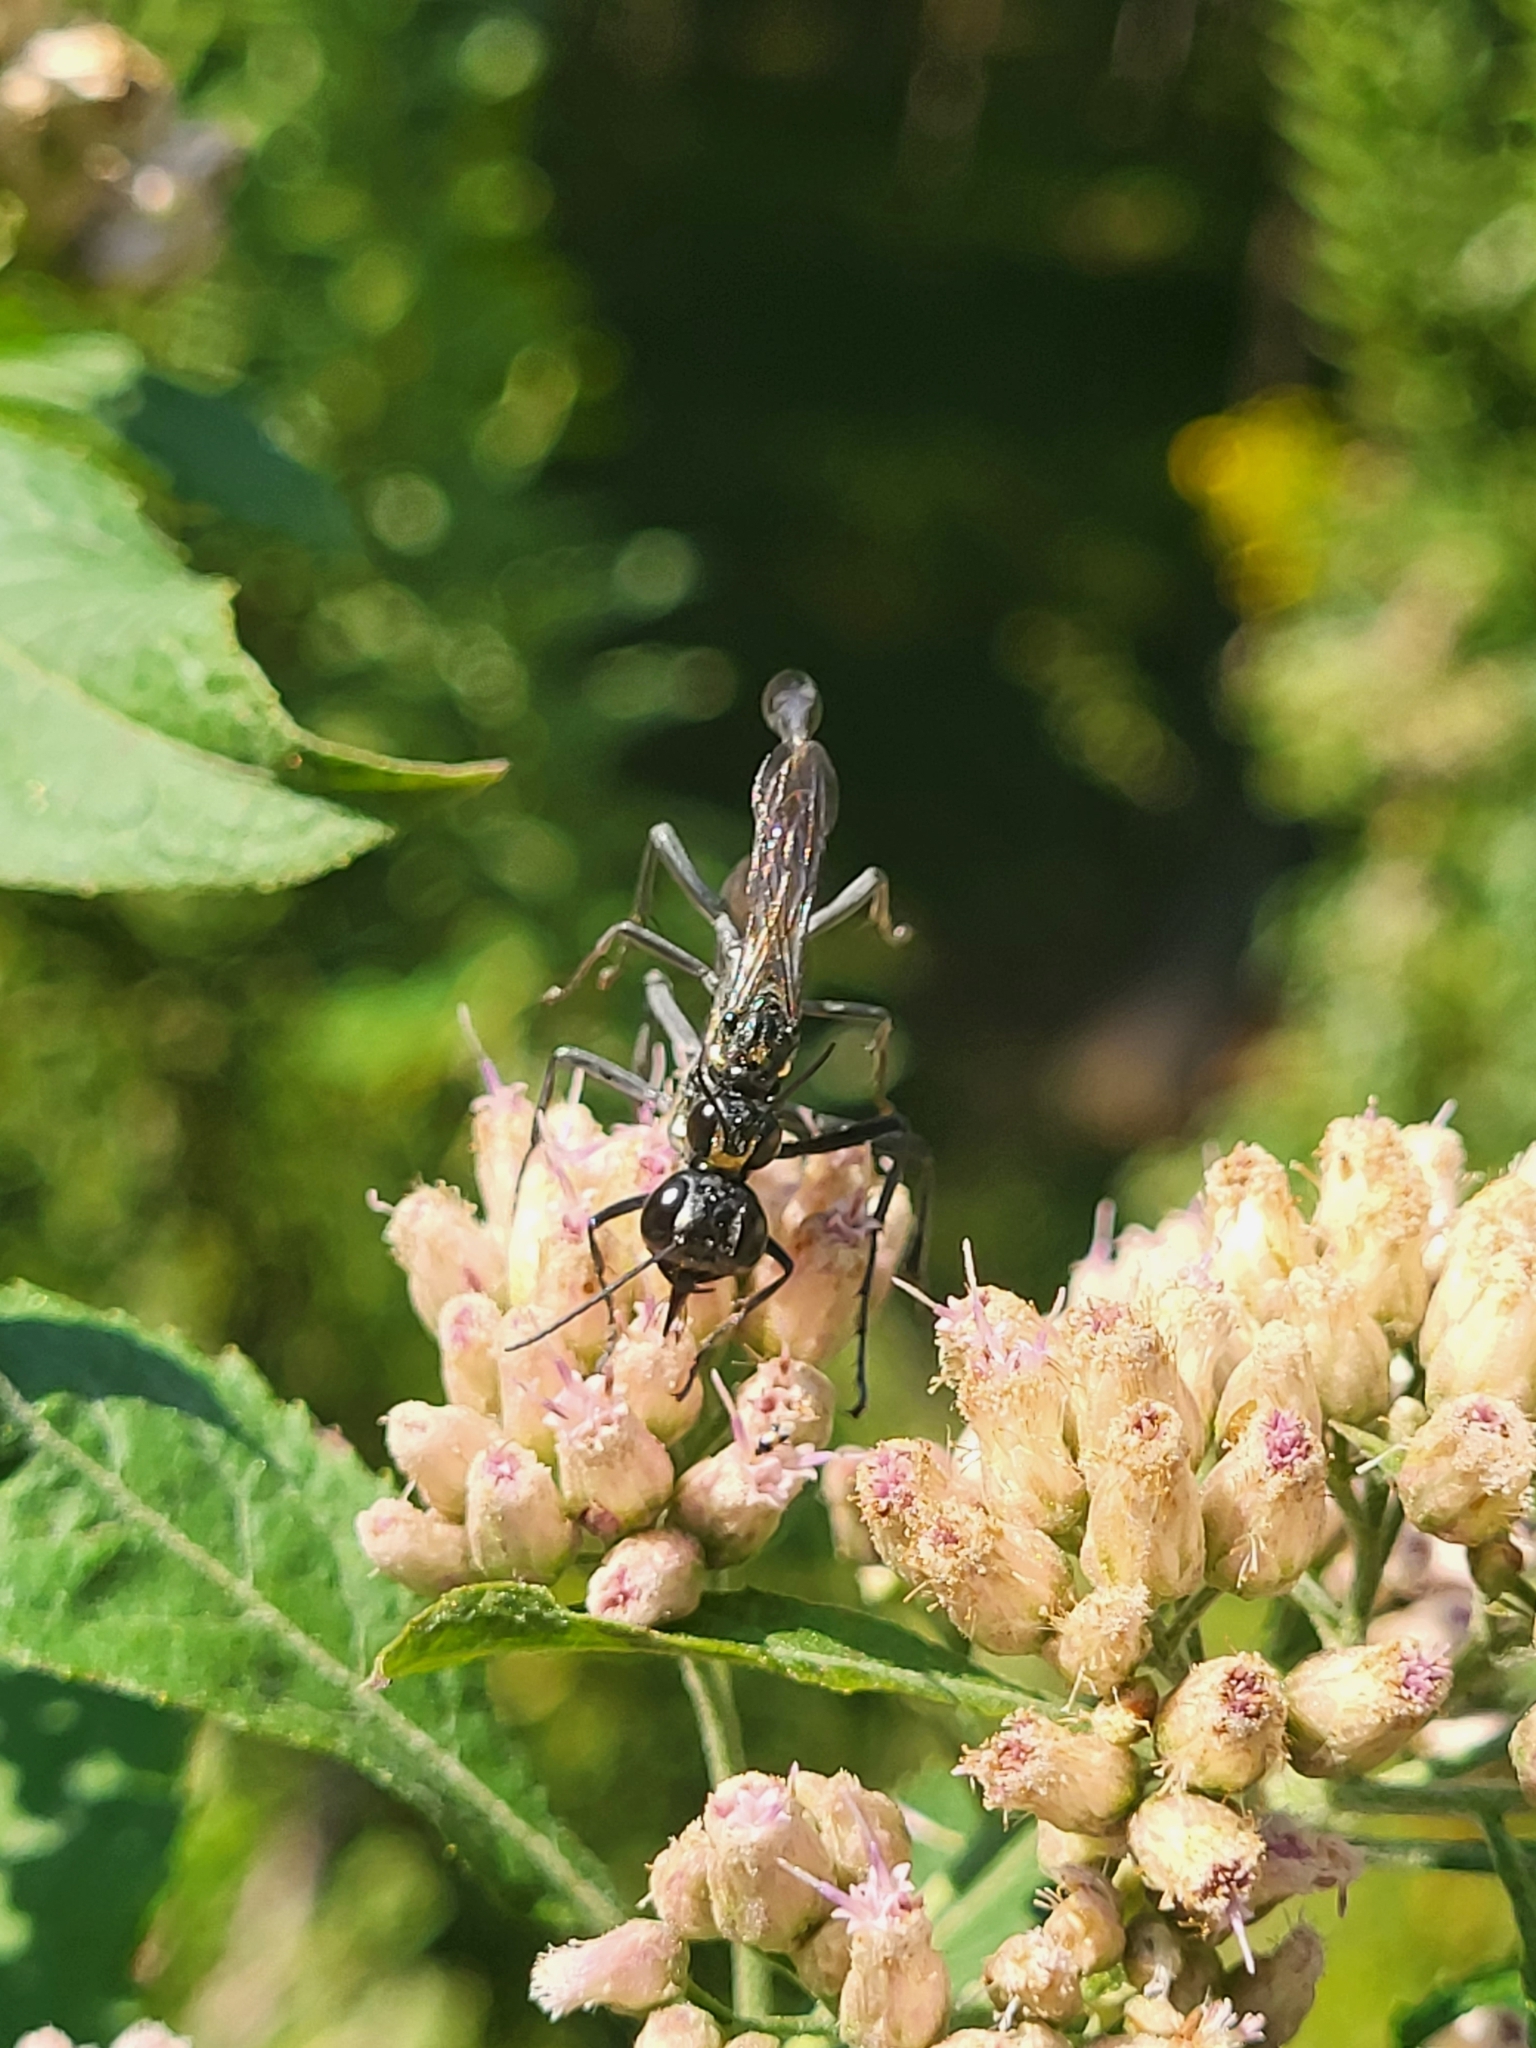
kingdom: Animalia
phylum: Arthropoda
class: Insecta
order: Hymenoptera
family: Sphecidae
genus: Eremnophila
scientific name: Eremnophila aureonotata
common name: Gold-marked thread-waisted wasp
